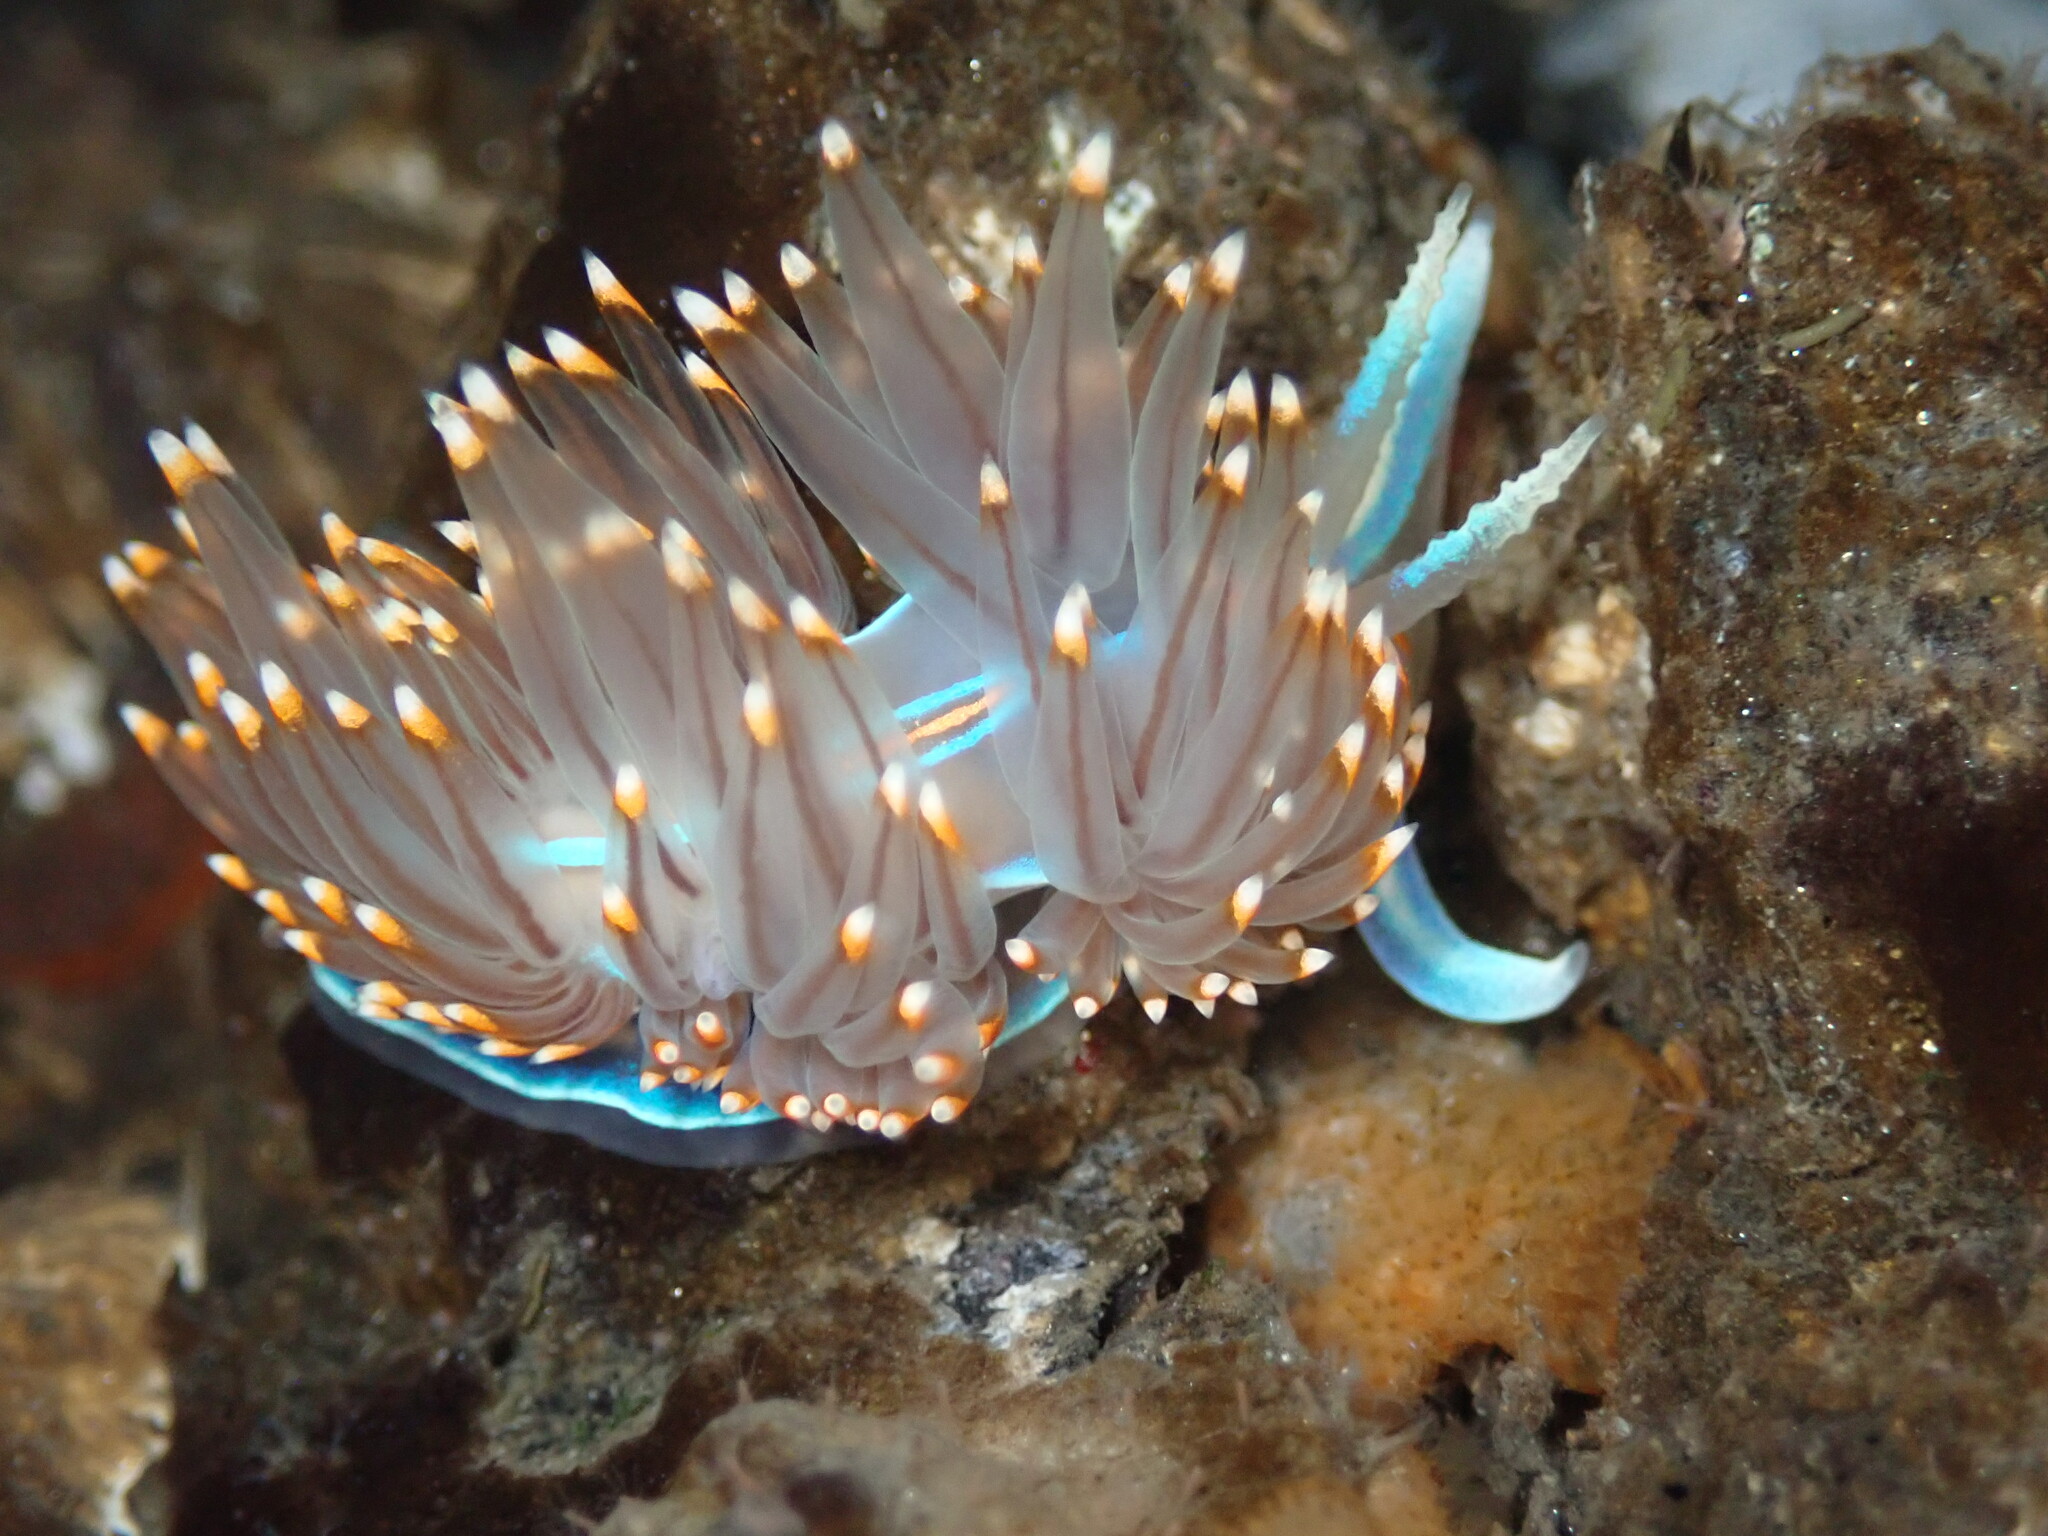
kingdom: Animalia
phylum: Mollusca
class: Gastropoda
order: Nudibranchia
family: Myrrhinidae
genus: Hermissenda
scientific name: Hermissenda opalescens
